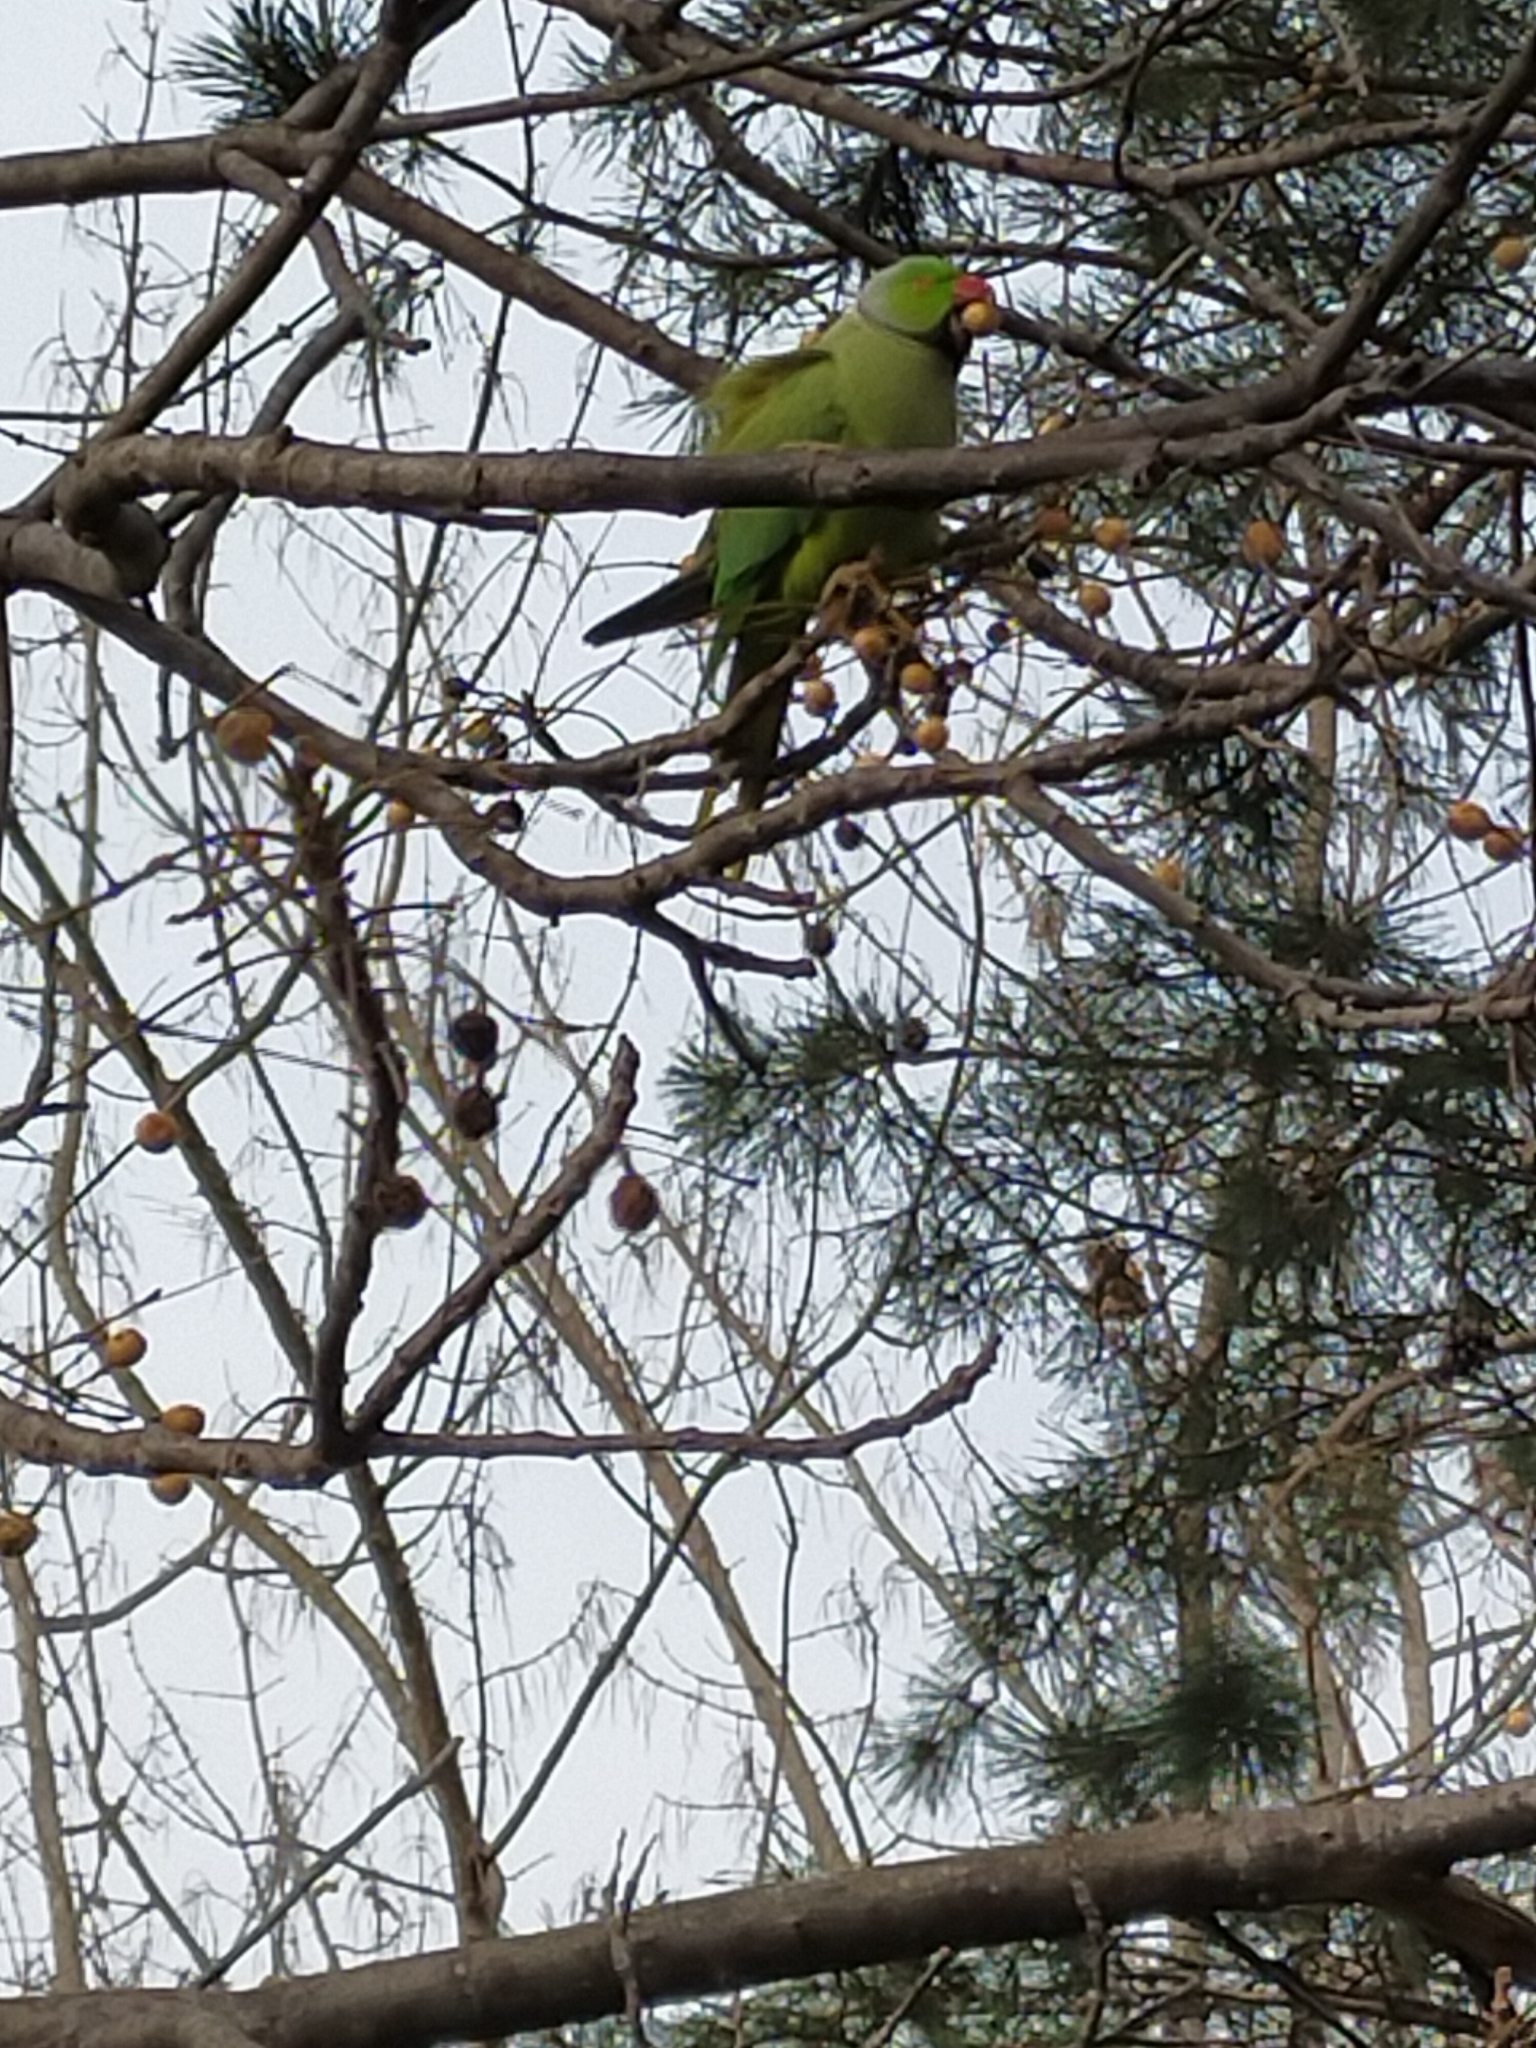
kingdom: Animalia
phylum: Chordata
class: Aves
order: Psittaciformes
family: Psittacidae
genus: Psittacula
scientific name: Psittacula krameri
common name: Rose-ringed parakeet
